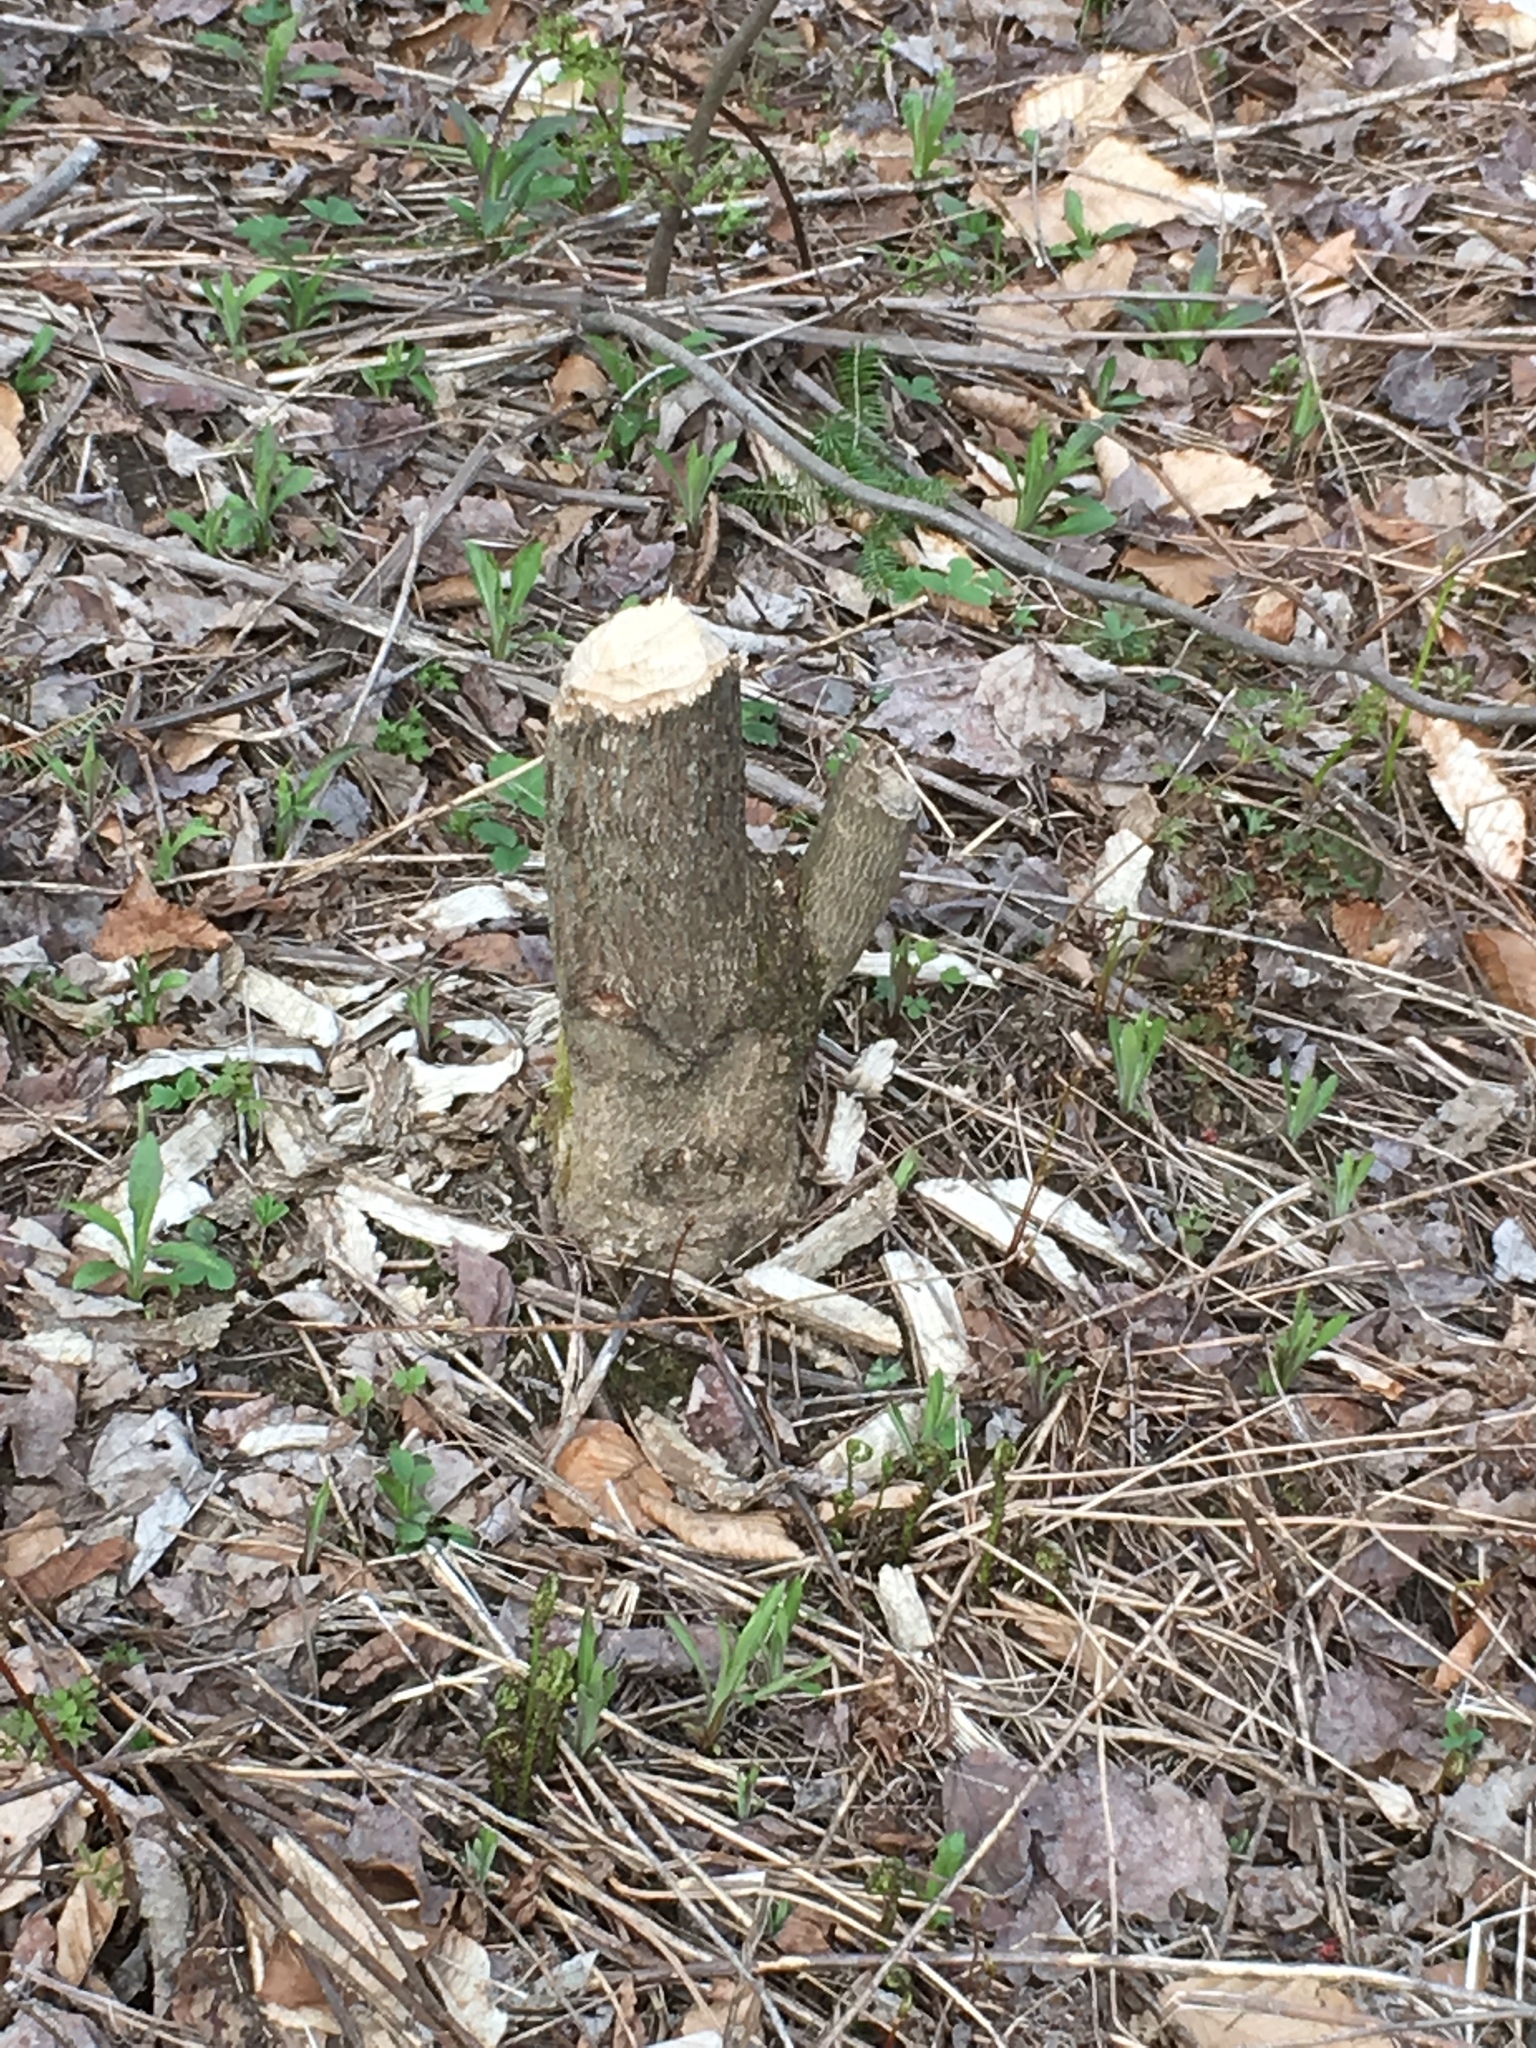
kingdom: Animalia
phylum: Chordata
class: Mammalia
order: Rodentia
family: Castoridae
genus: Castor
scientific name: Castor canadensis
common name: American beaver
